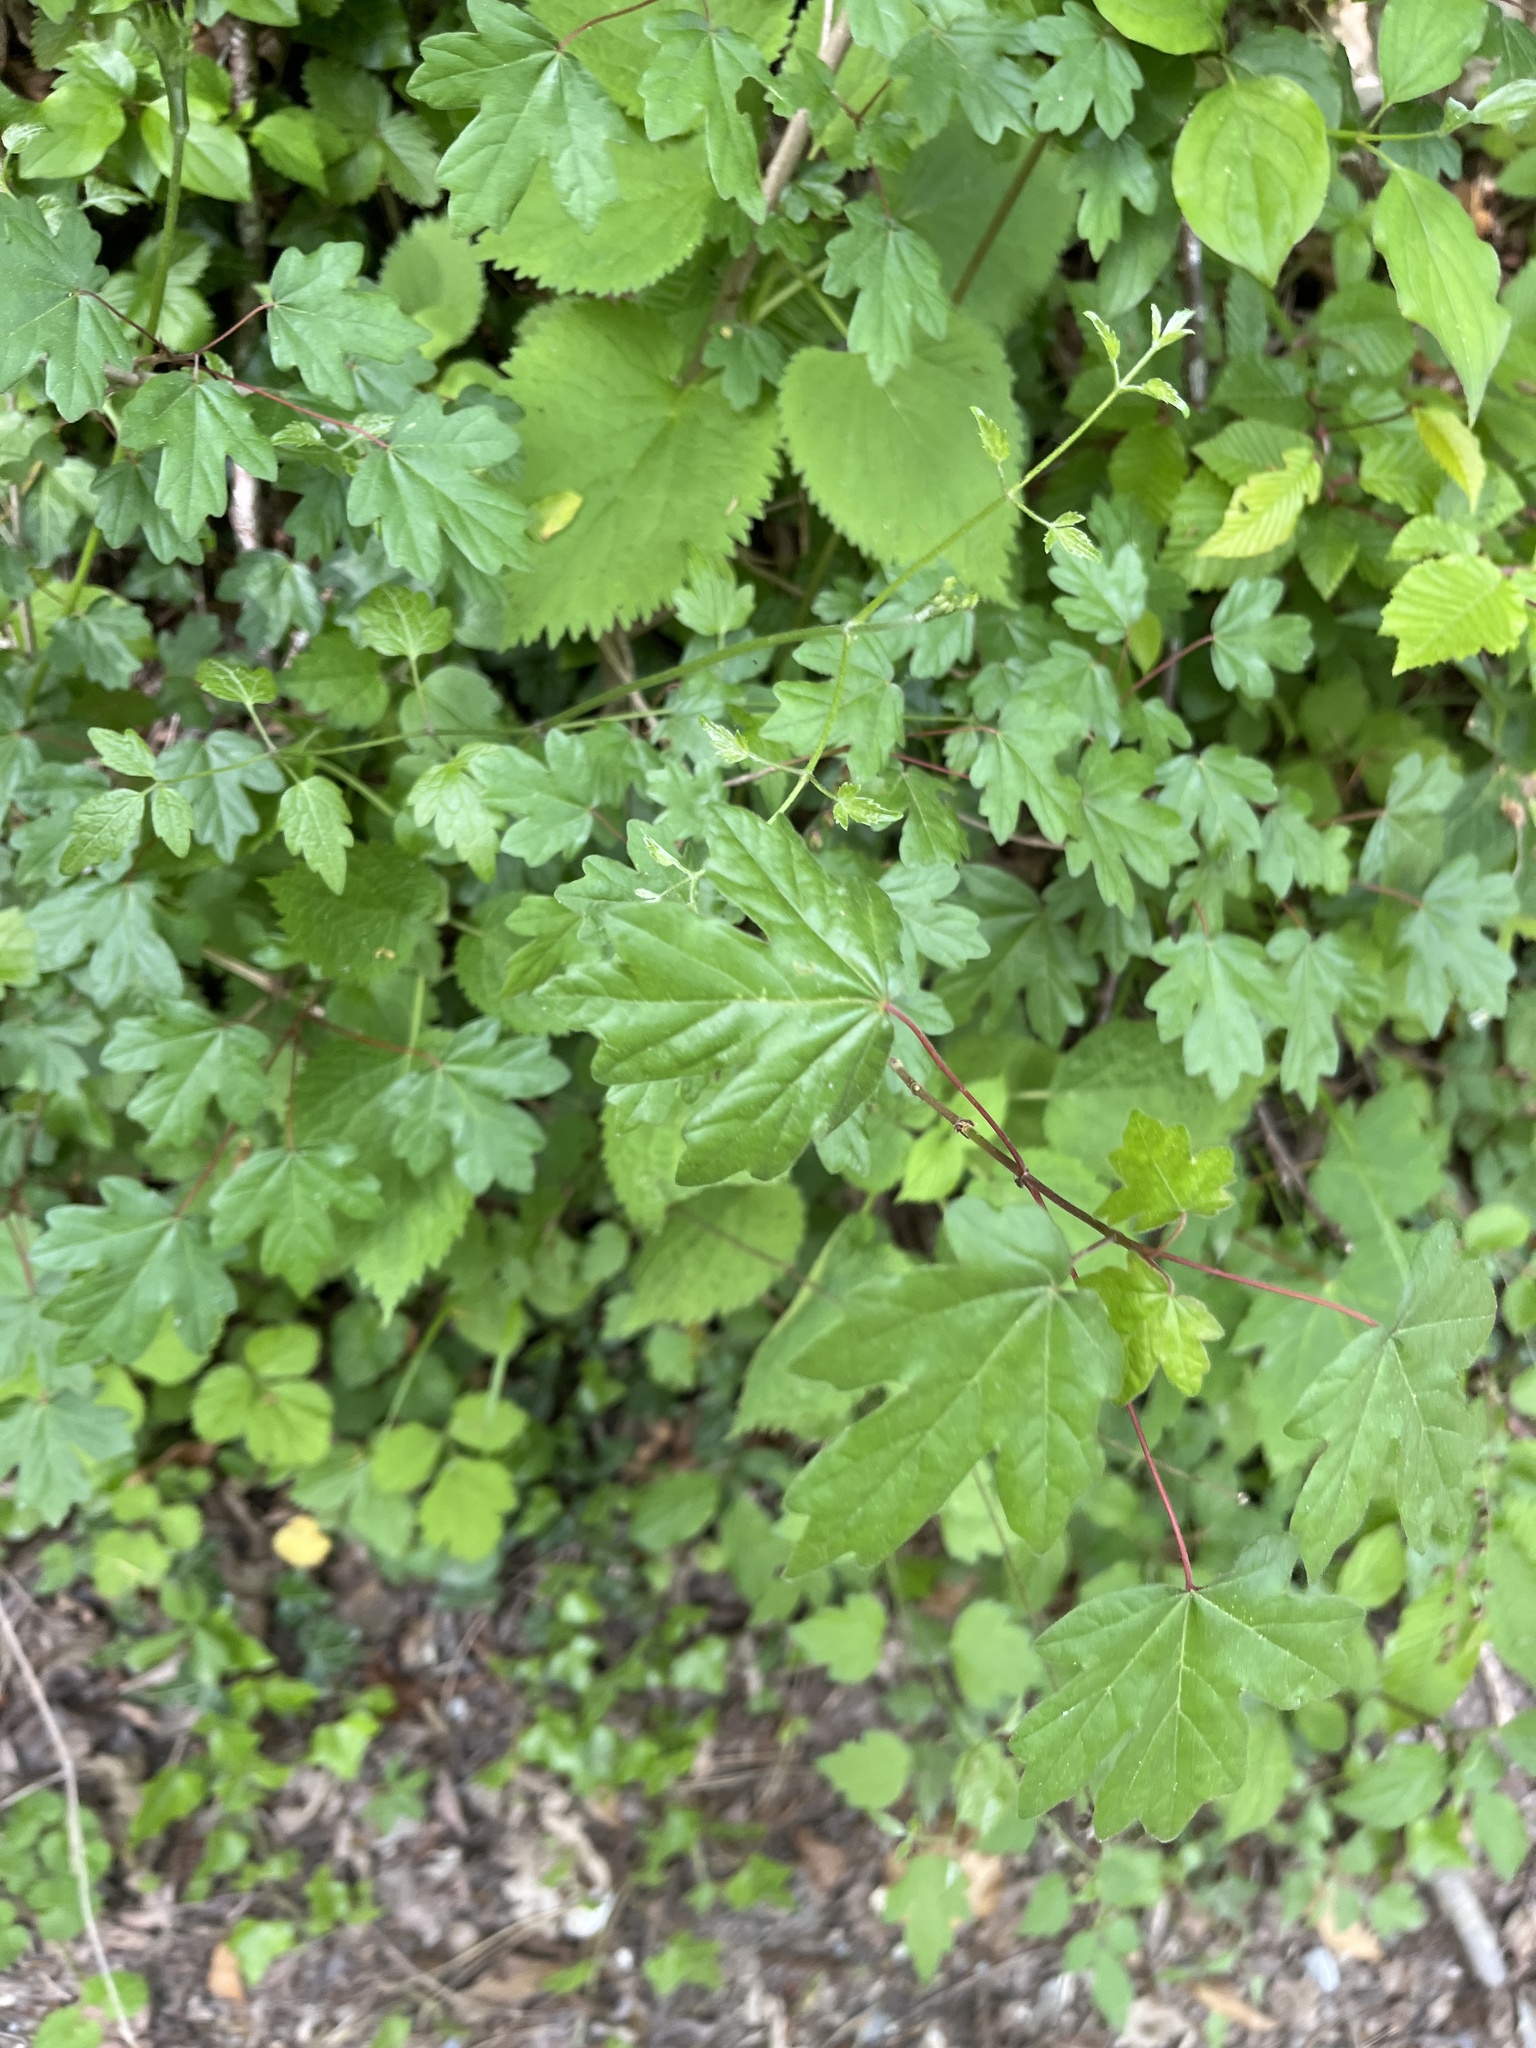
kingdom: Plantae
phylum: Tracheophyta
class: Magnoliopsida
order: Sapindales
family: Sapindaceae
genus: Acer
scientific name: Acer campestre
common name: Field maple
